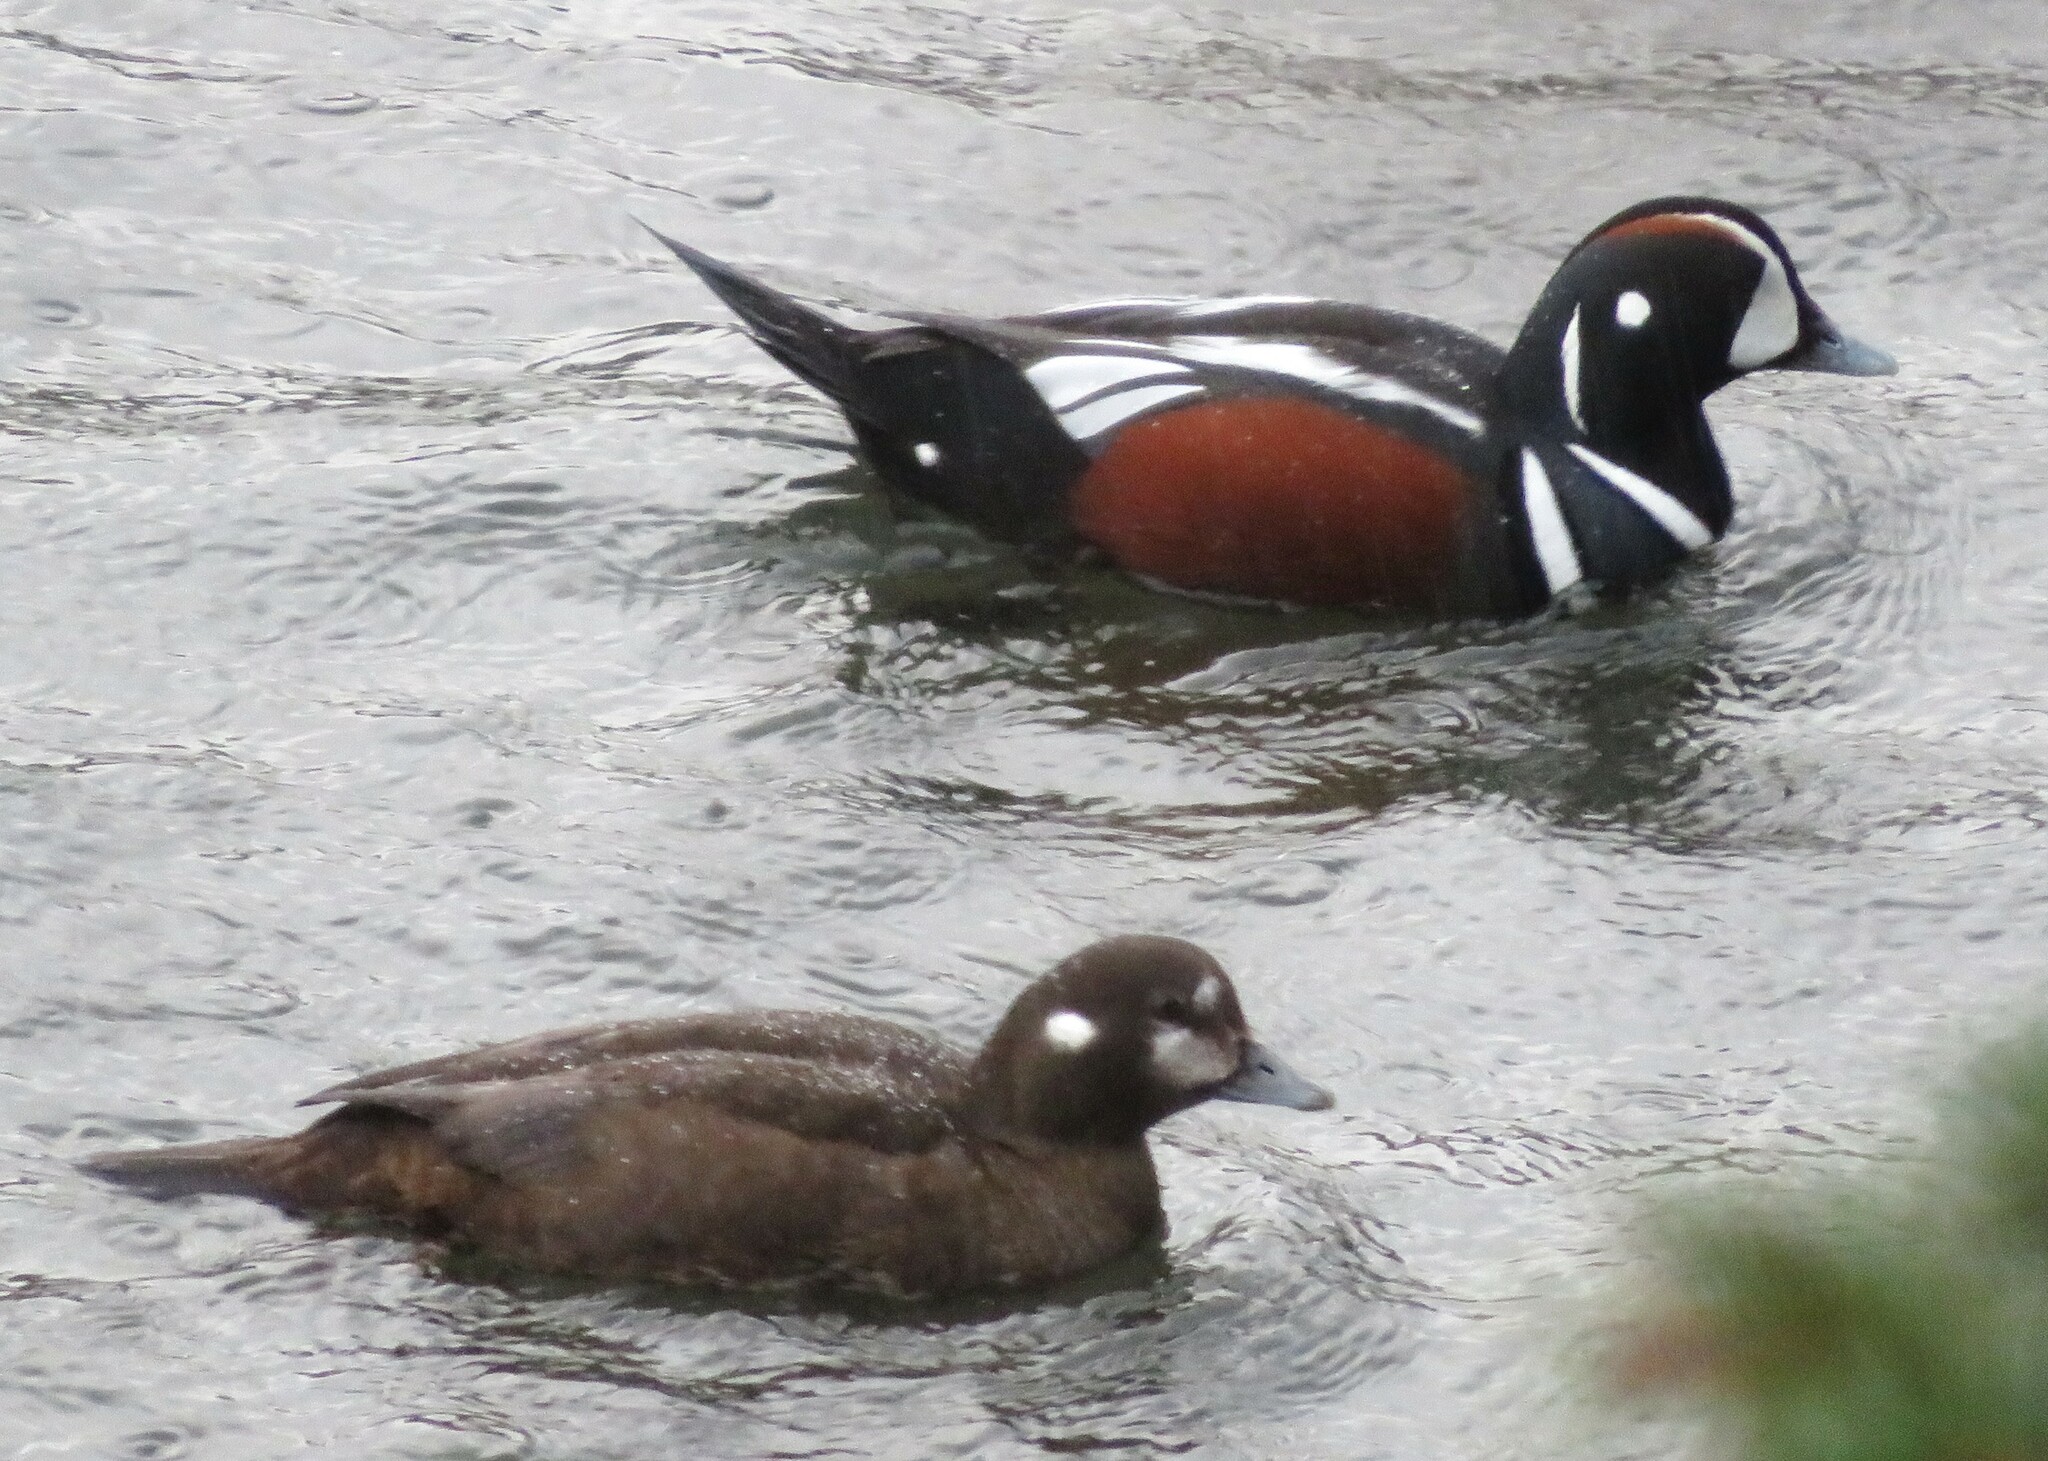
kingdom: Animalia
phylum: Chordata
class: Aves
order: Anseriformes
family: Anatidae
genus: Histrionicus
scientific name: Histrionicus histrionicus
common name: Harlequin duck
